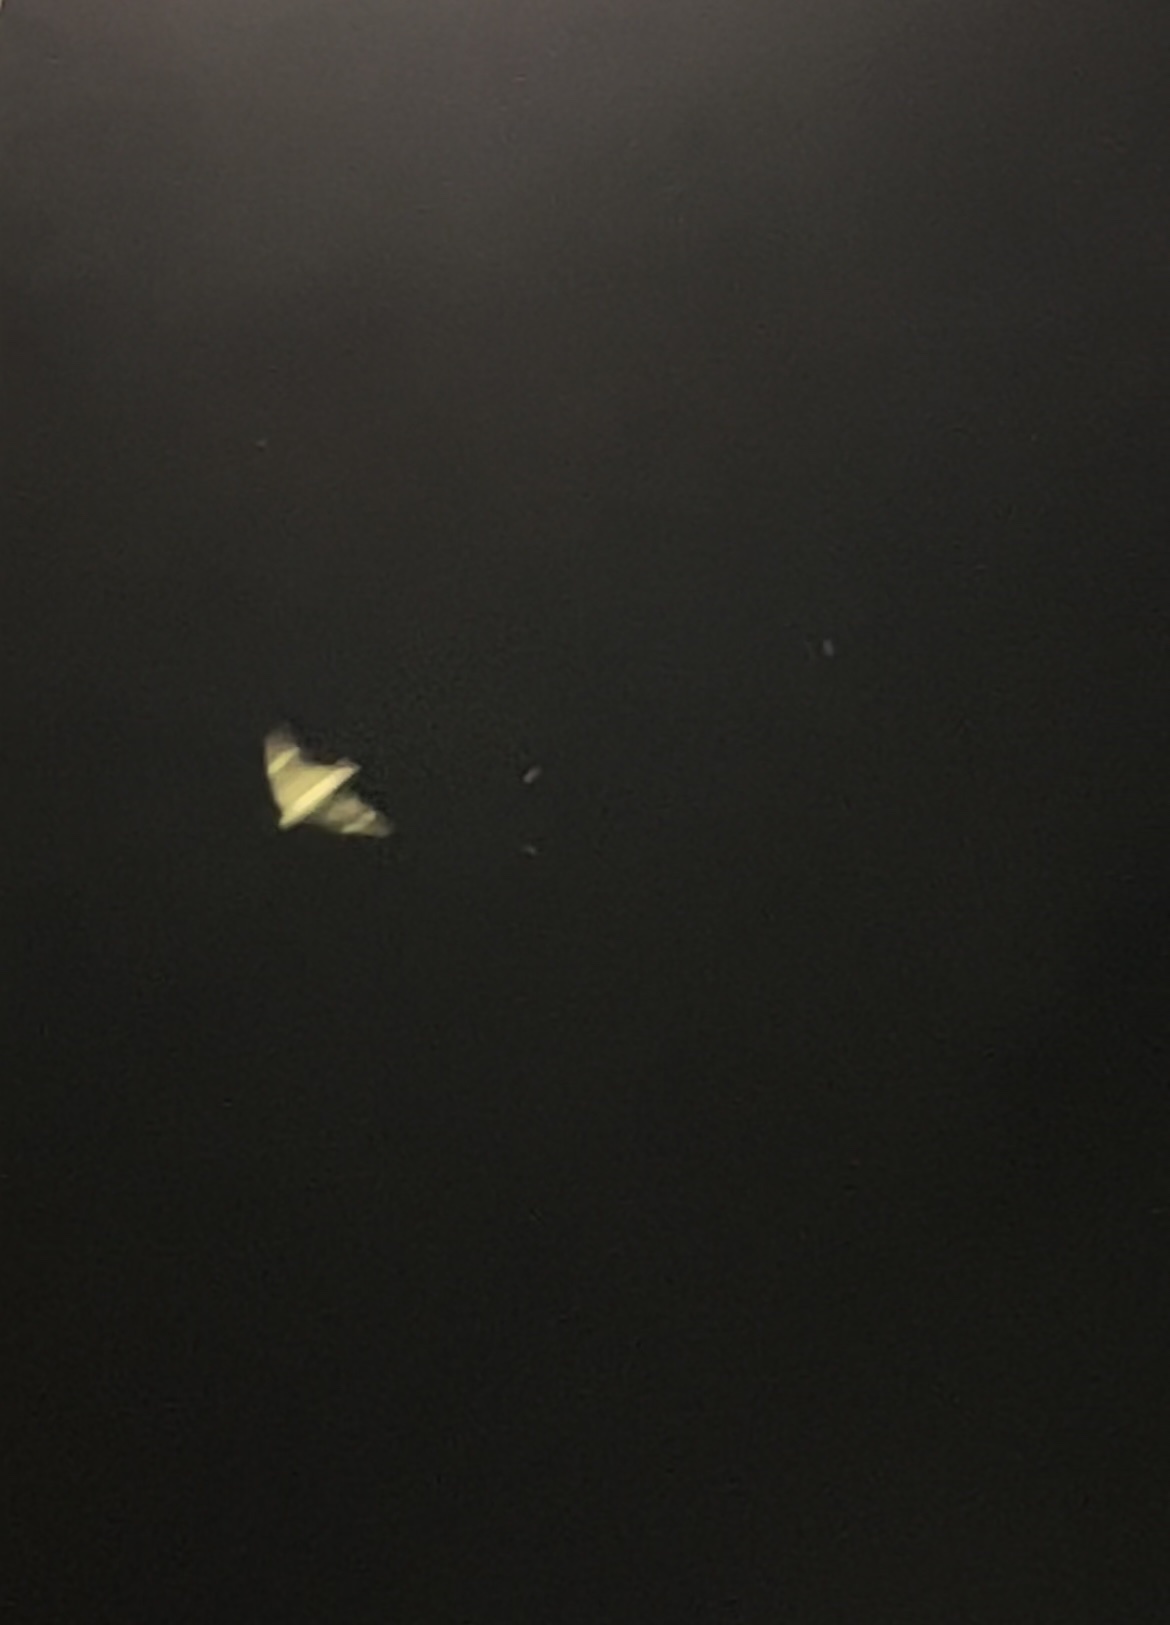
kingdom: Animalia
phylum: Chordata
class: Aves
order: Caprimulgiformes
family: Caprimulgidae
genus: Chordeiles
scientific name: Chordeiles minor
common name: Common nighthawk
